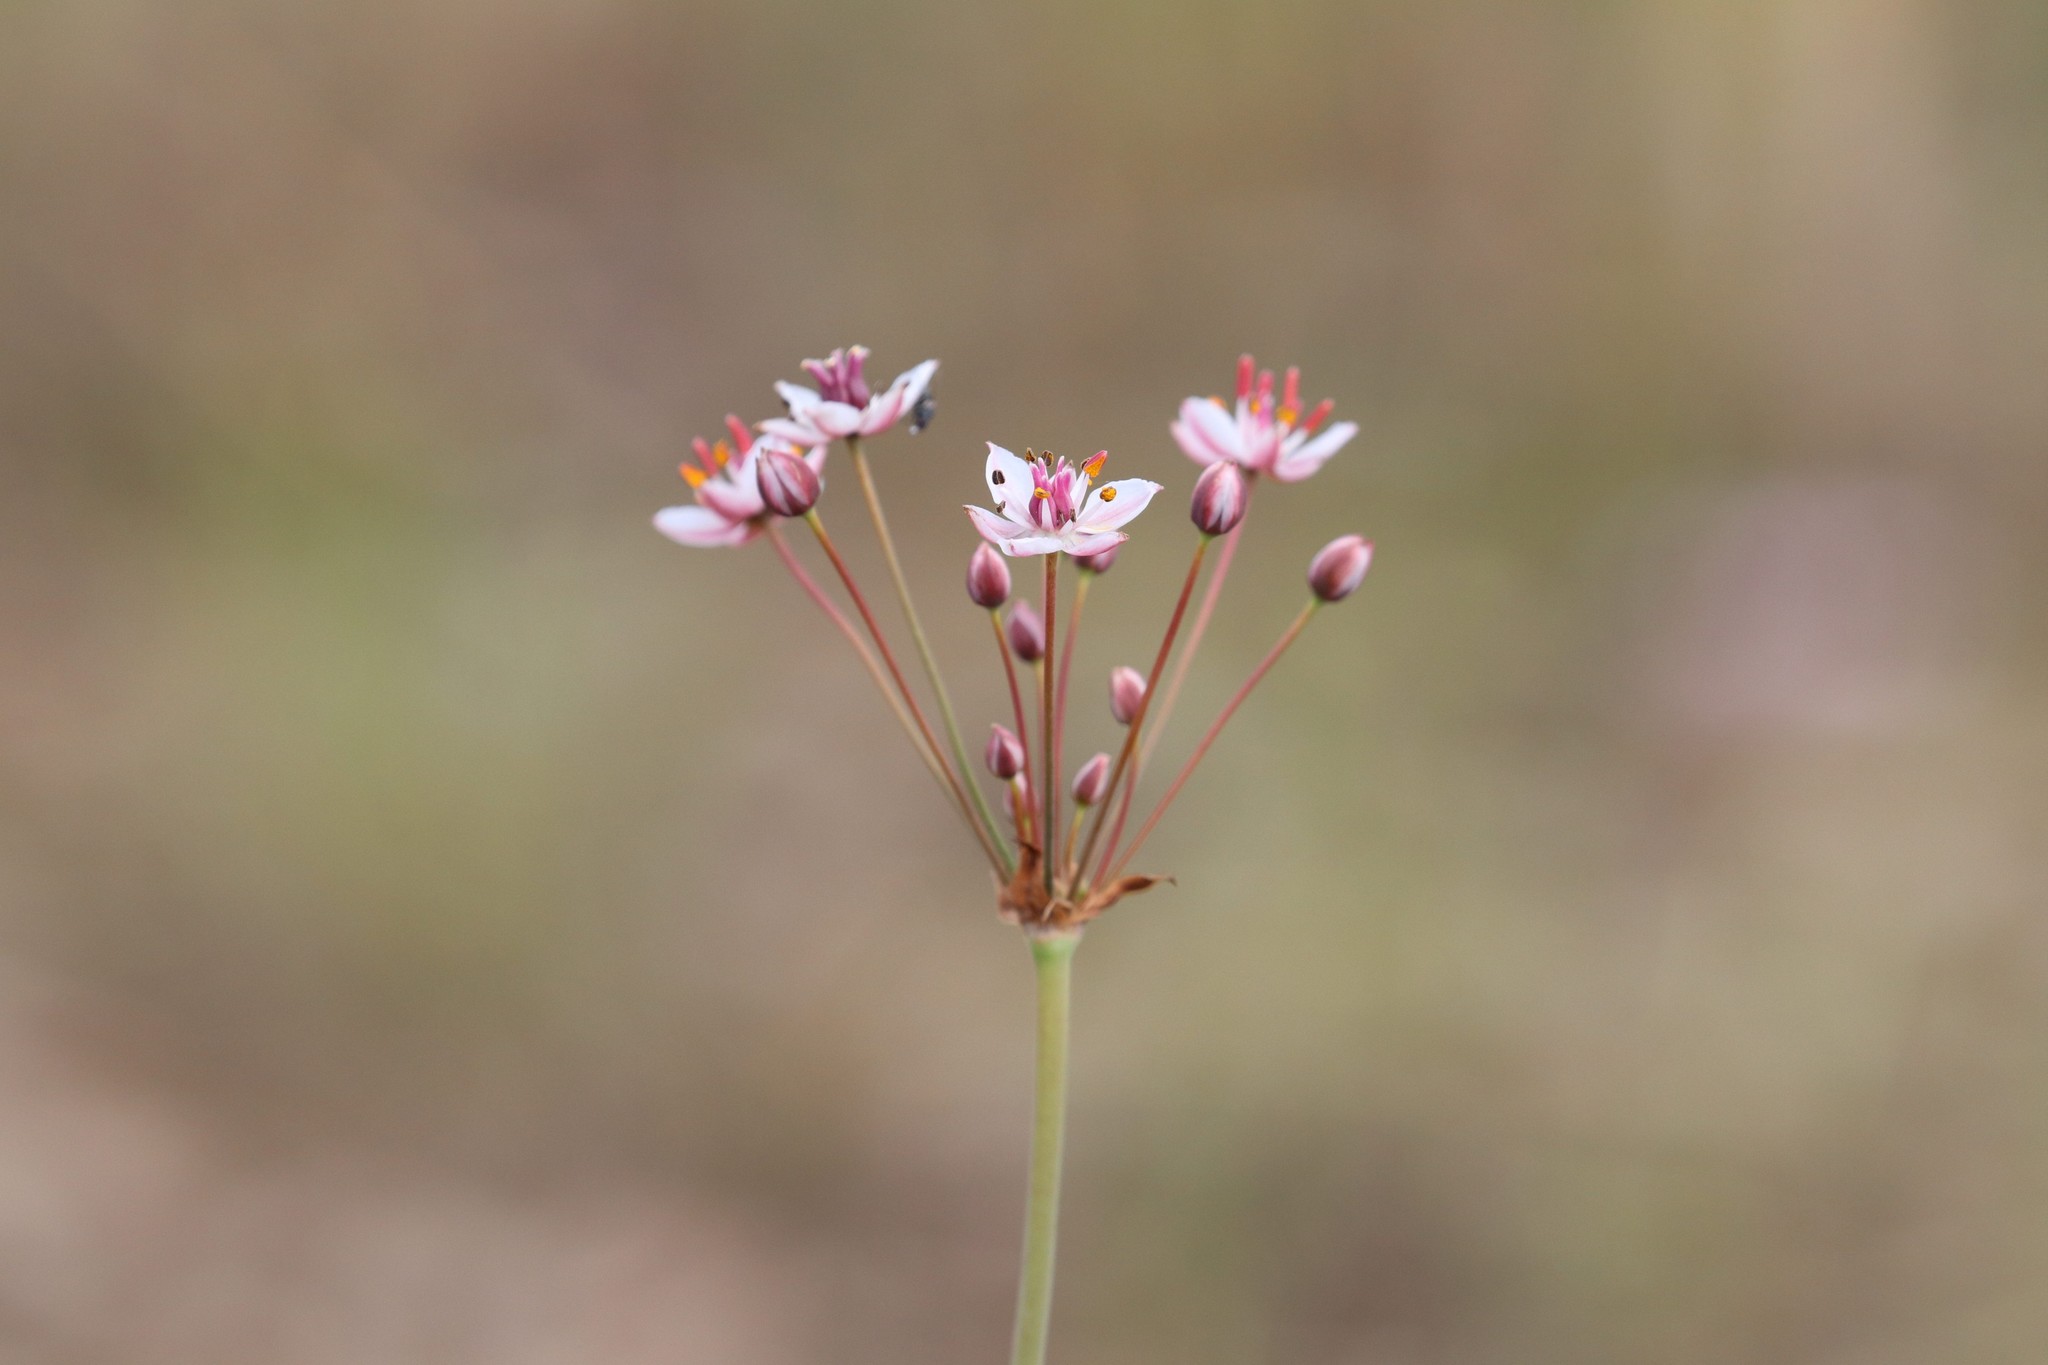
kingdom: Plantae
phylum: Tracheophyta
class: Liliopsida
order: Alismatales
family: Butomaceae
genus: Butomus
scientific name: Butomus umbellatus
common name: Flowering-rush
